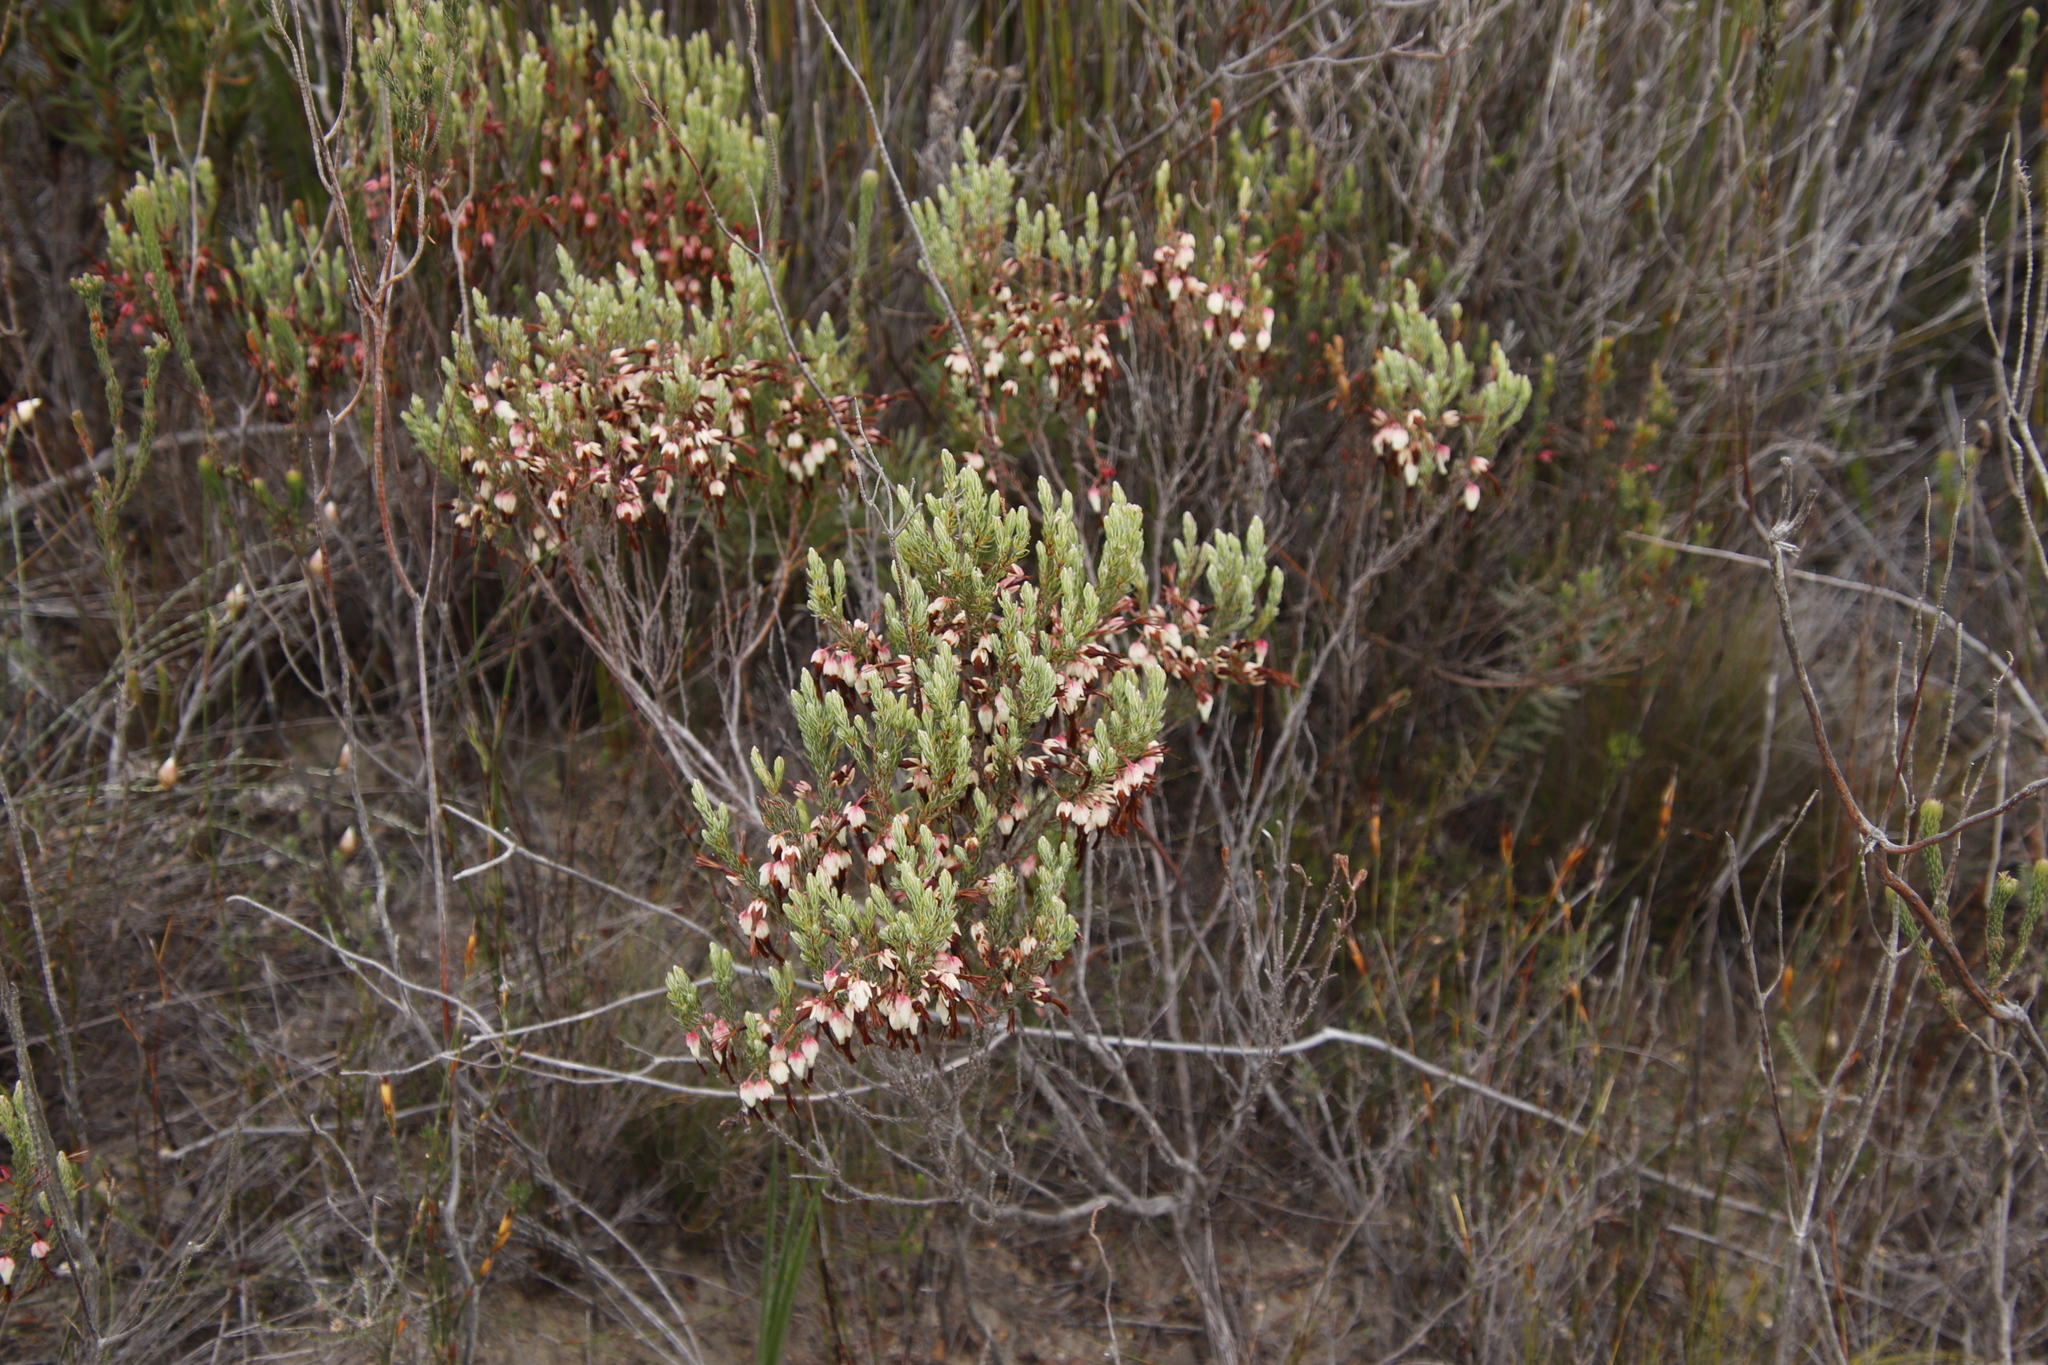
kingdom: Plantae
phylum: Tracheophyta
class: Magnoliopsida
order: Ericales
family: Ericaceae
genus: Erica
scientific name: Erica plukenetii
